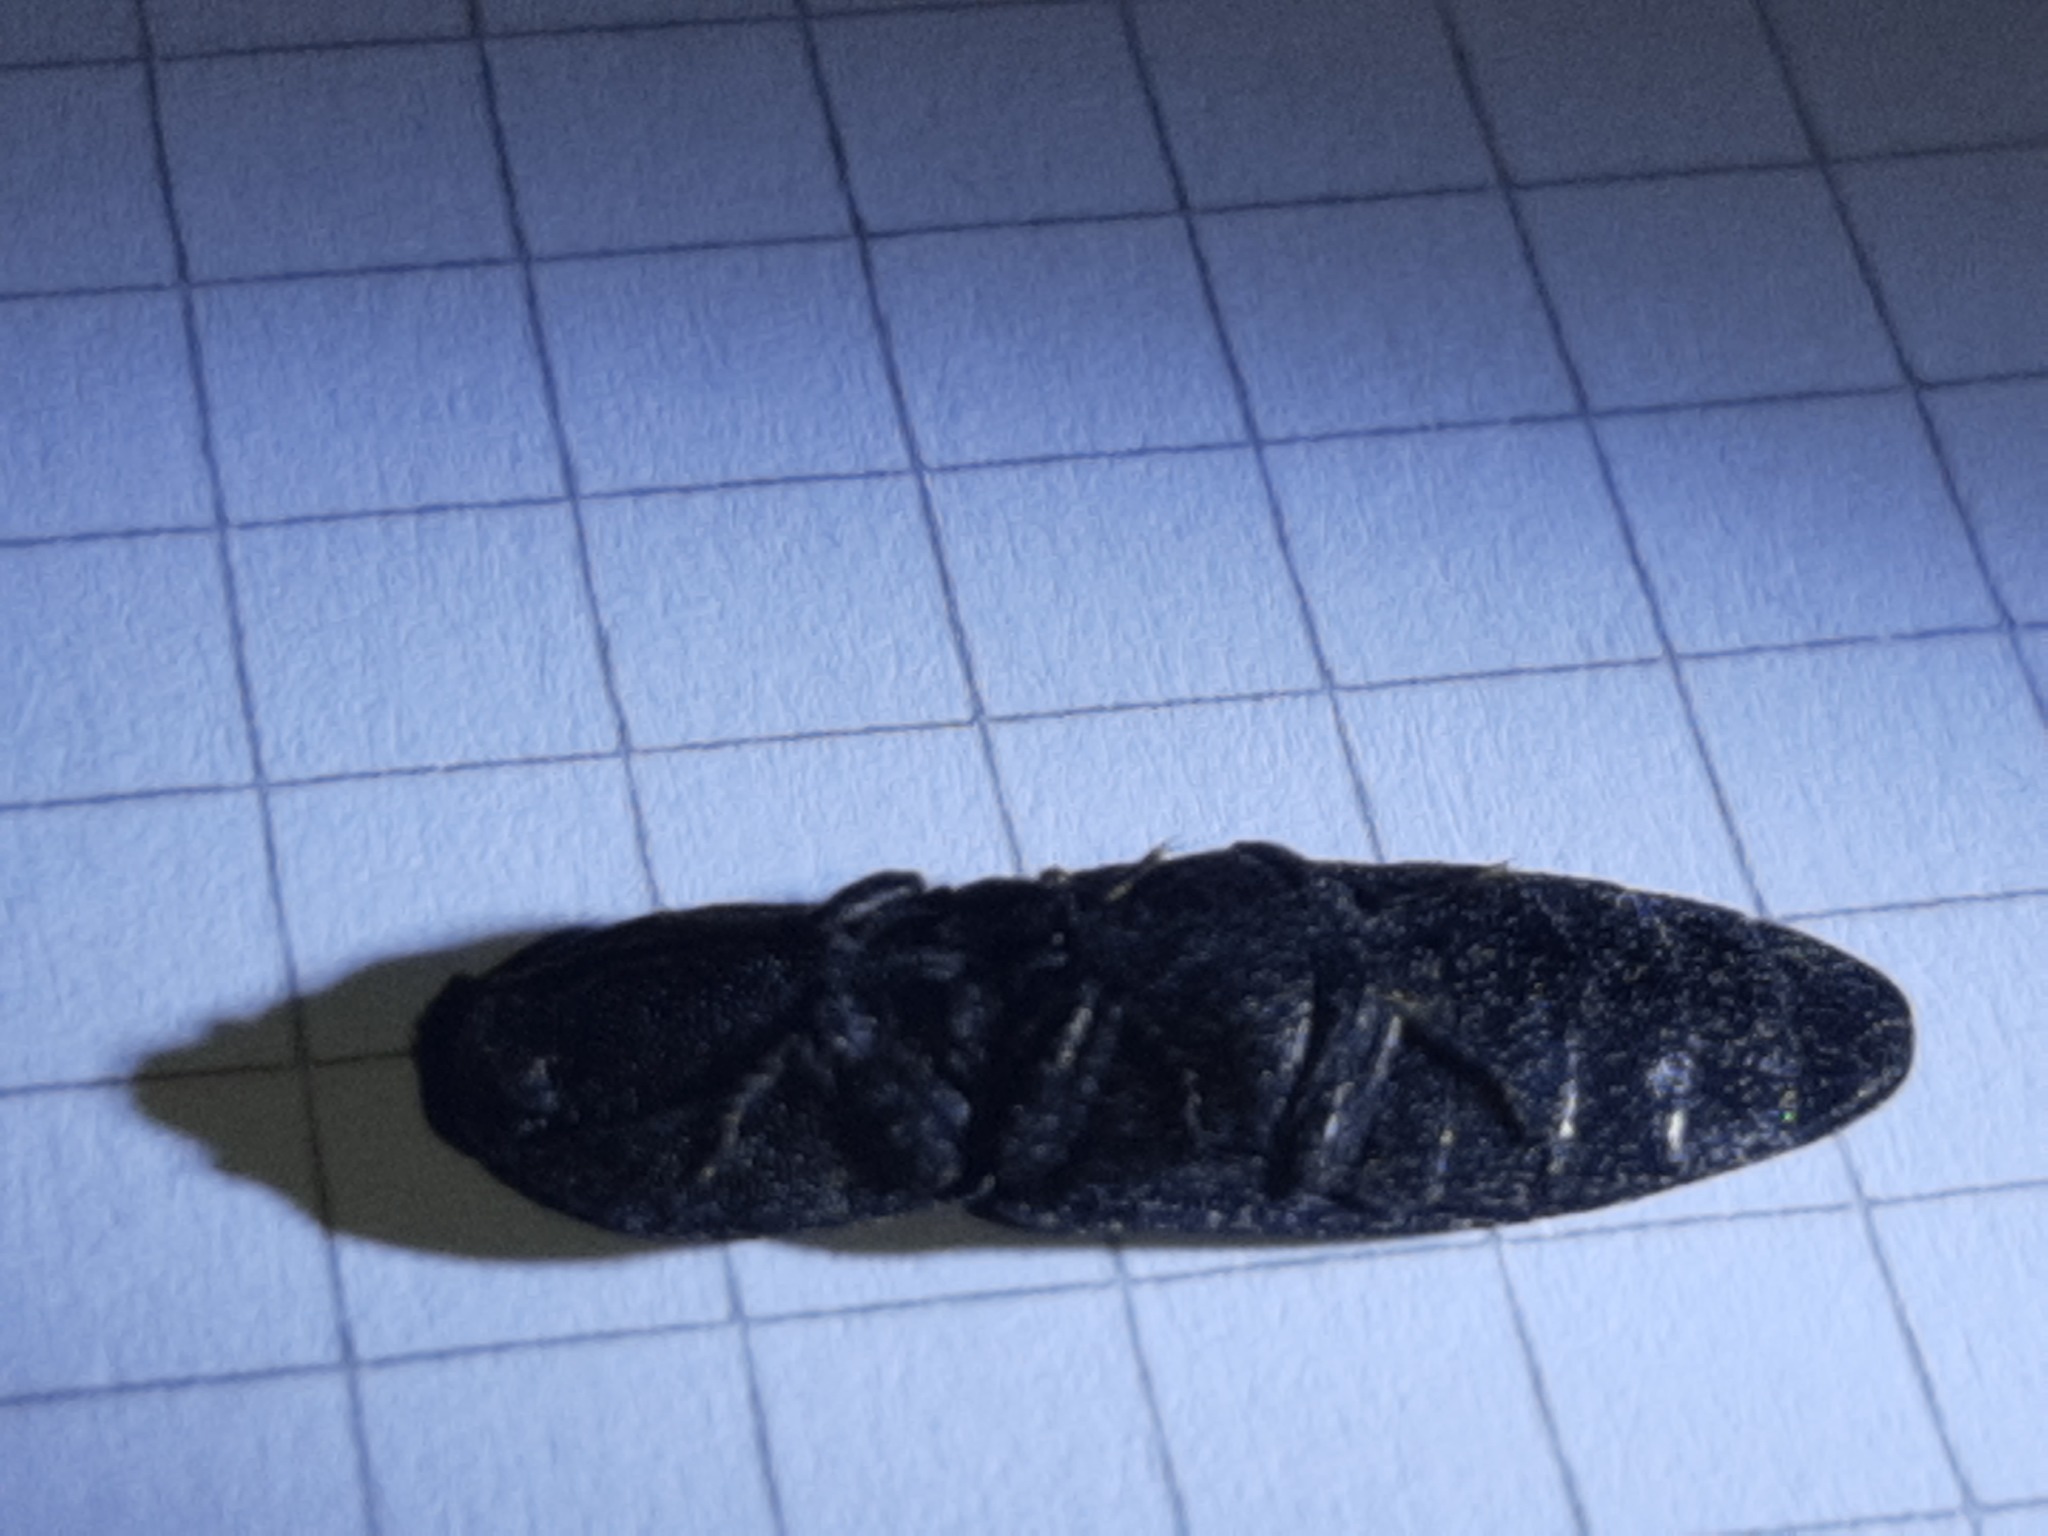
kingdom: Animalia
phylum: Arthropoda
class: Insecta
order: Coleoptera
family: Elateridae
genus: Lacon
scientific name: Lacon punctatus
